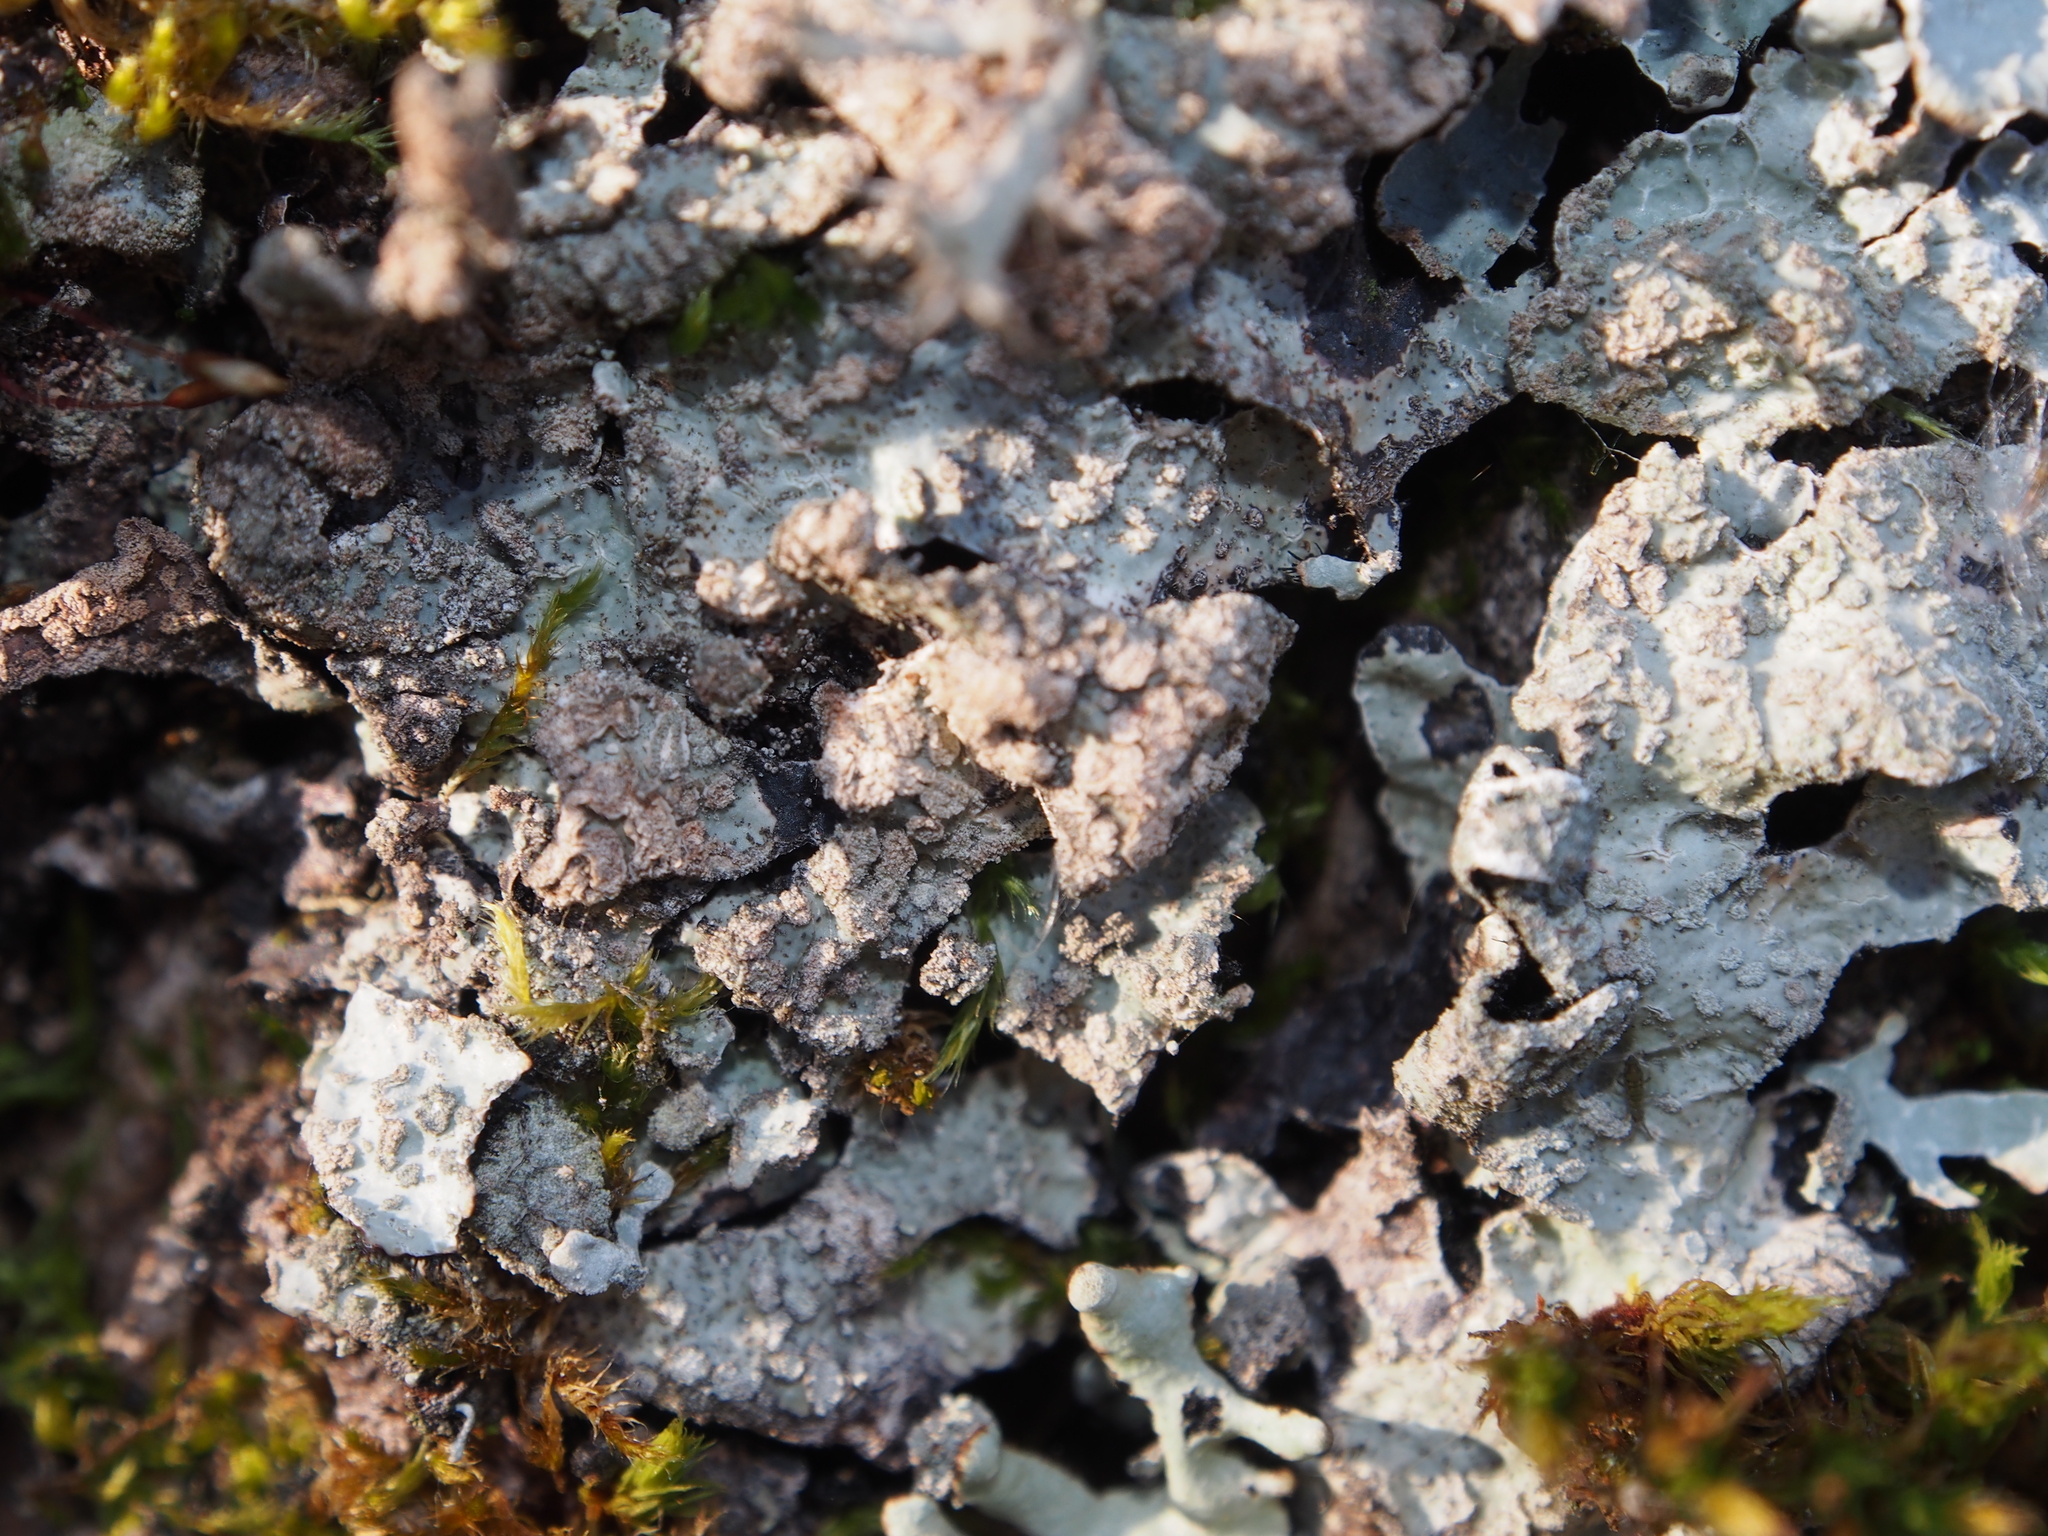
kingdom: Fungi
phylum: Ascomycota
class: Lecanoromycetes
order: Lecanorales
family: Parmeliaceae
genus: Parmelia
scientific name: Parmelia sulcata
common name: Netted shield lichen
